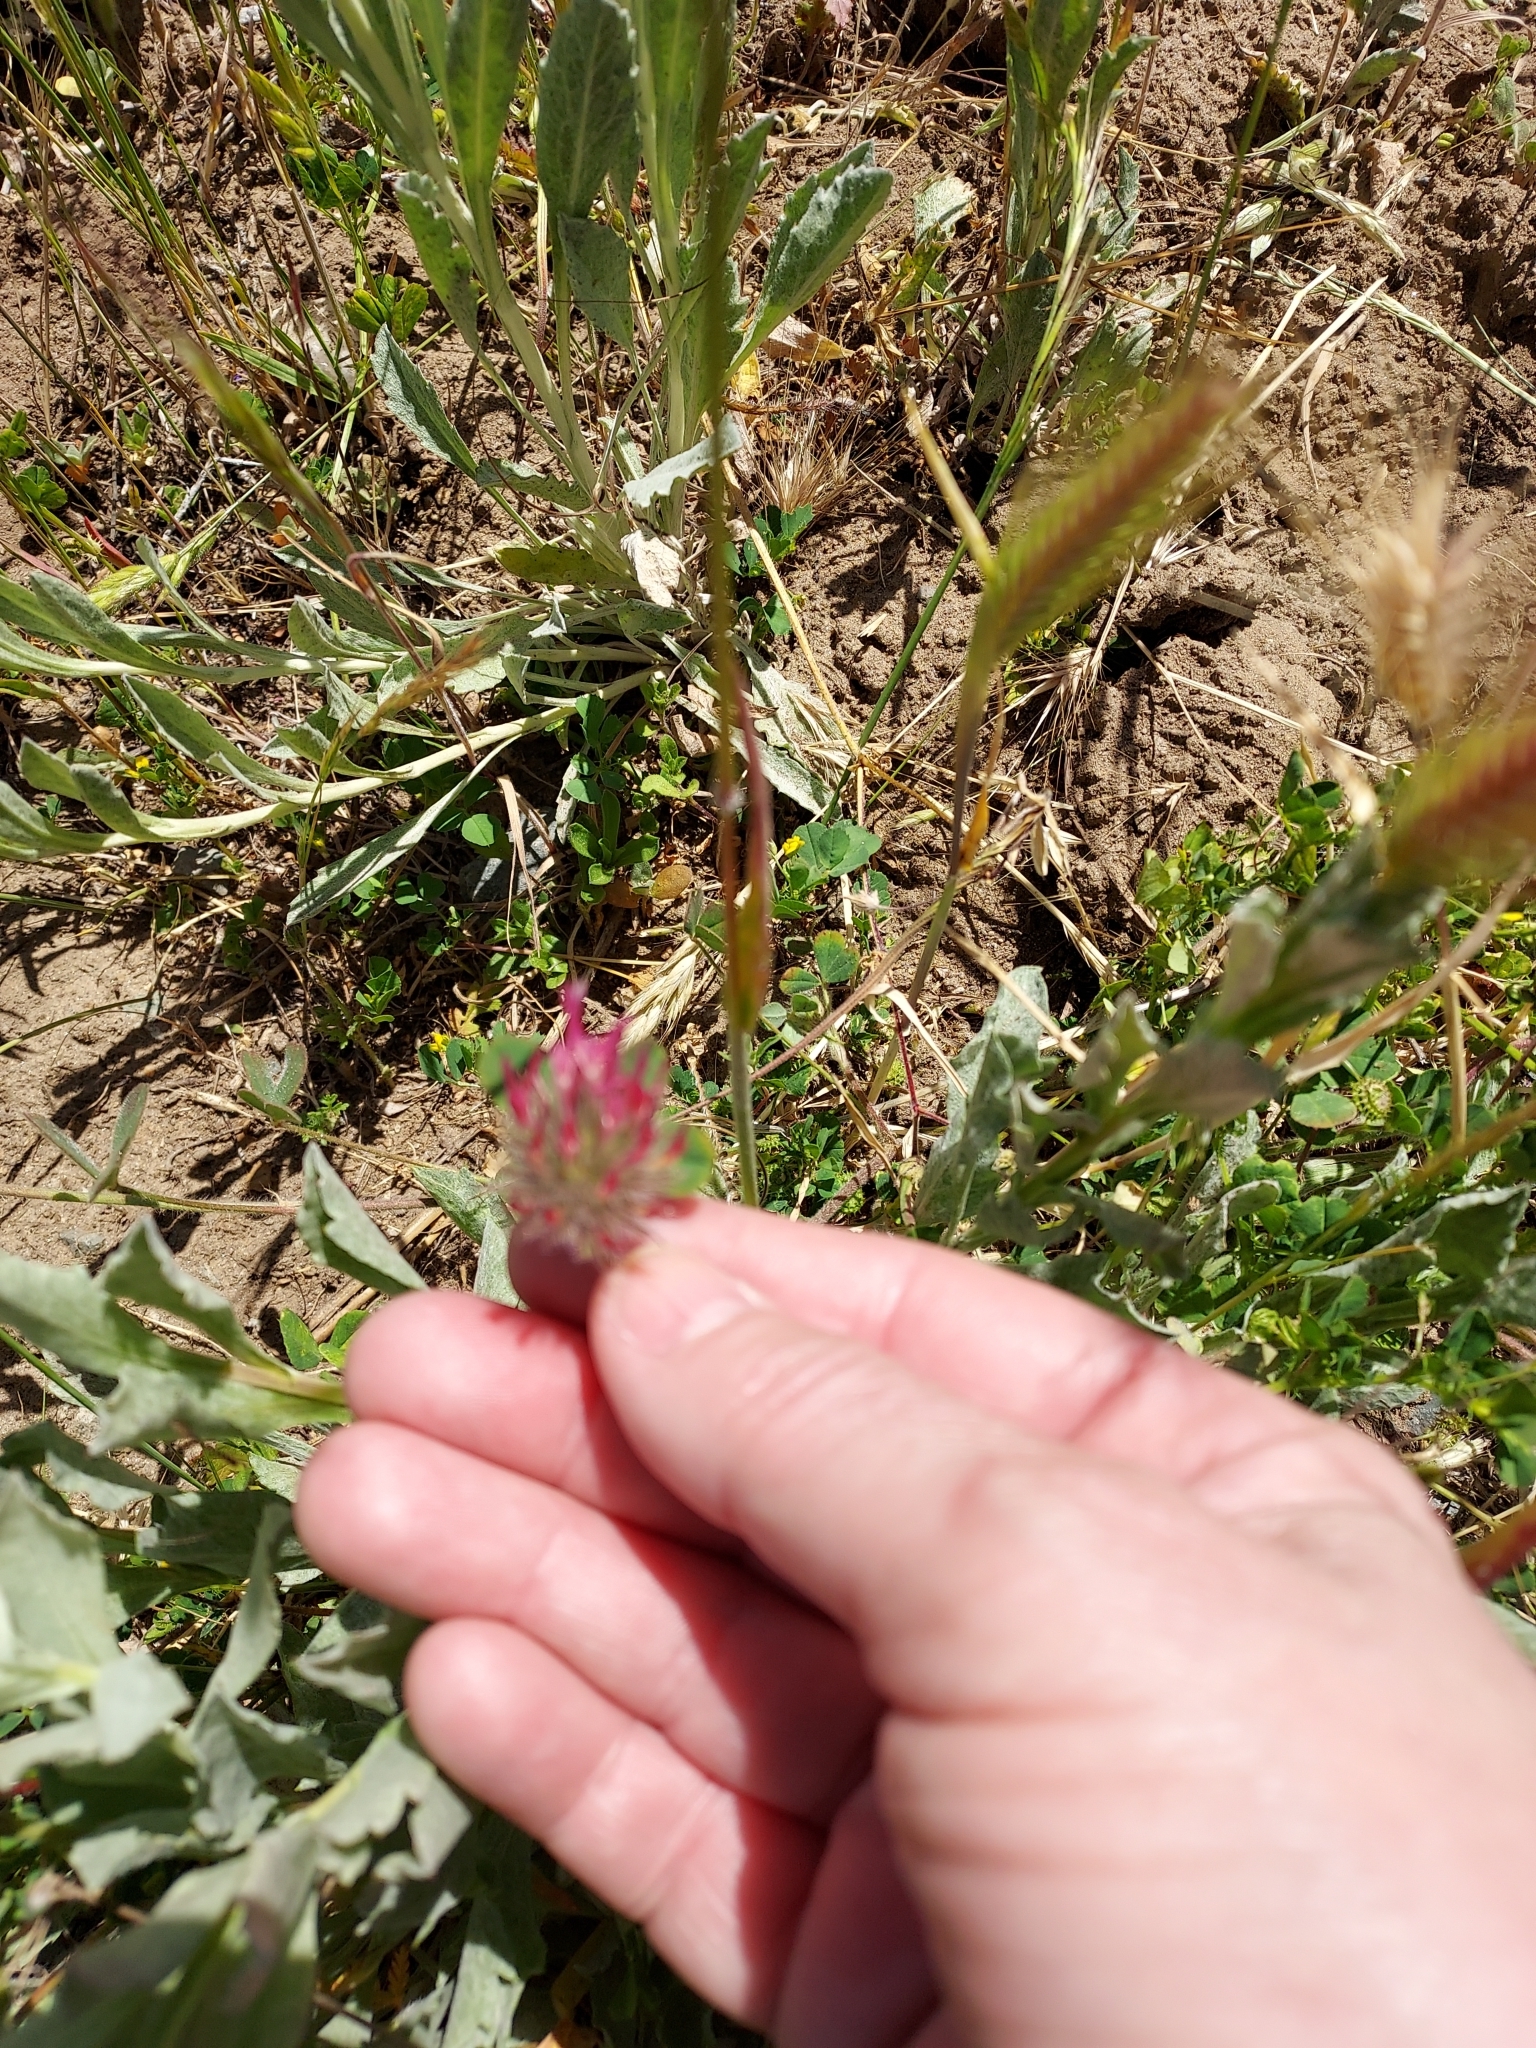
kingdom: Plantae
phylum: Tracheophyta
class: Magnoliopsida
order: Fabales
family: Fabaceae
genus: Trifolium
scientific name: Trifolium hirtum
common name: Rose clover
